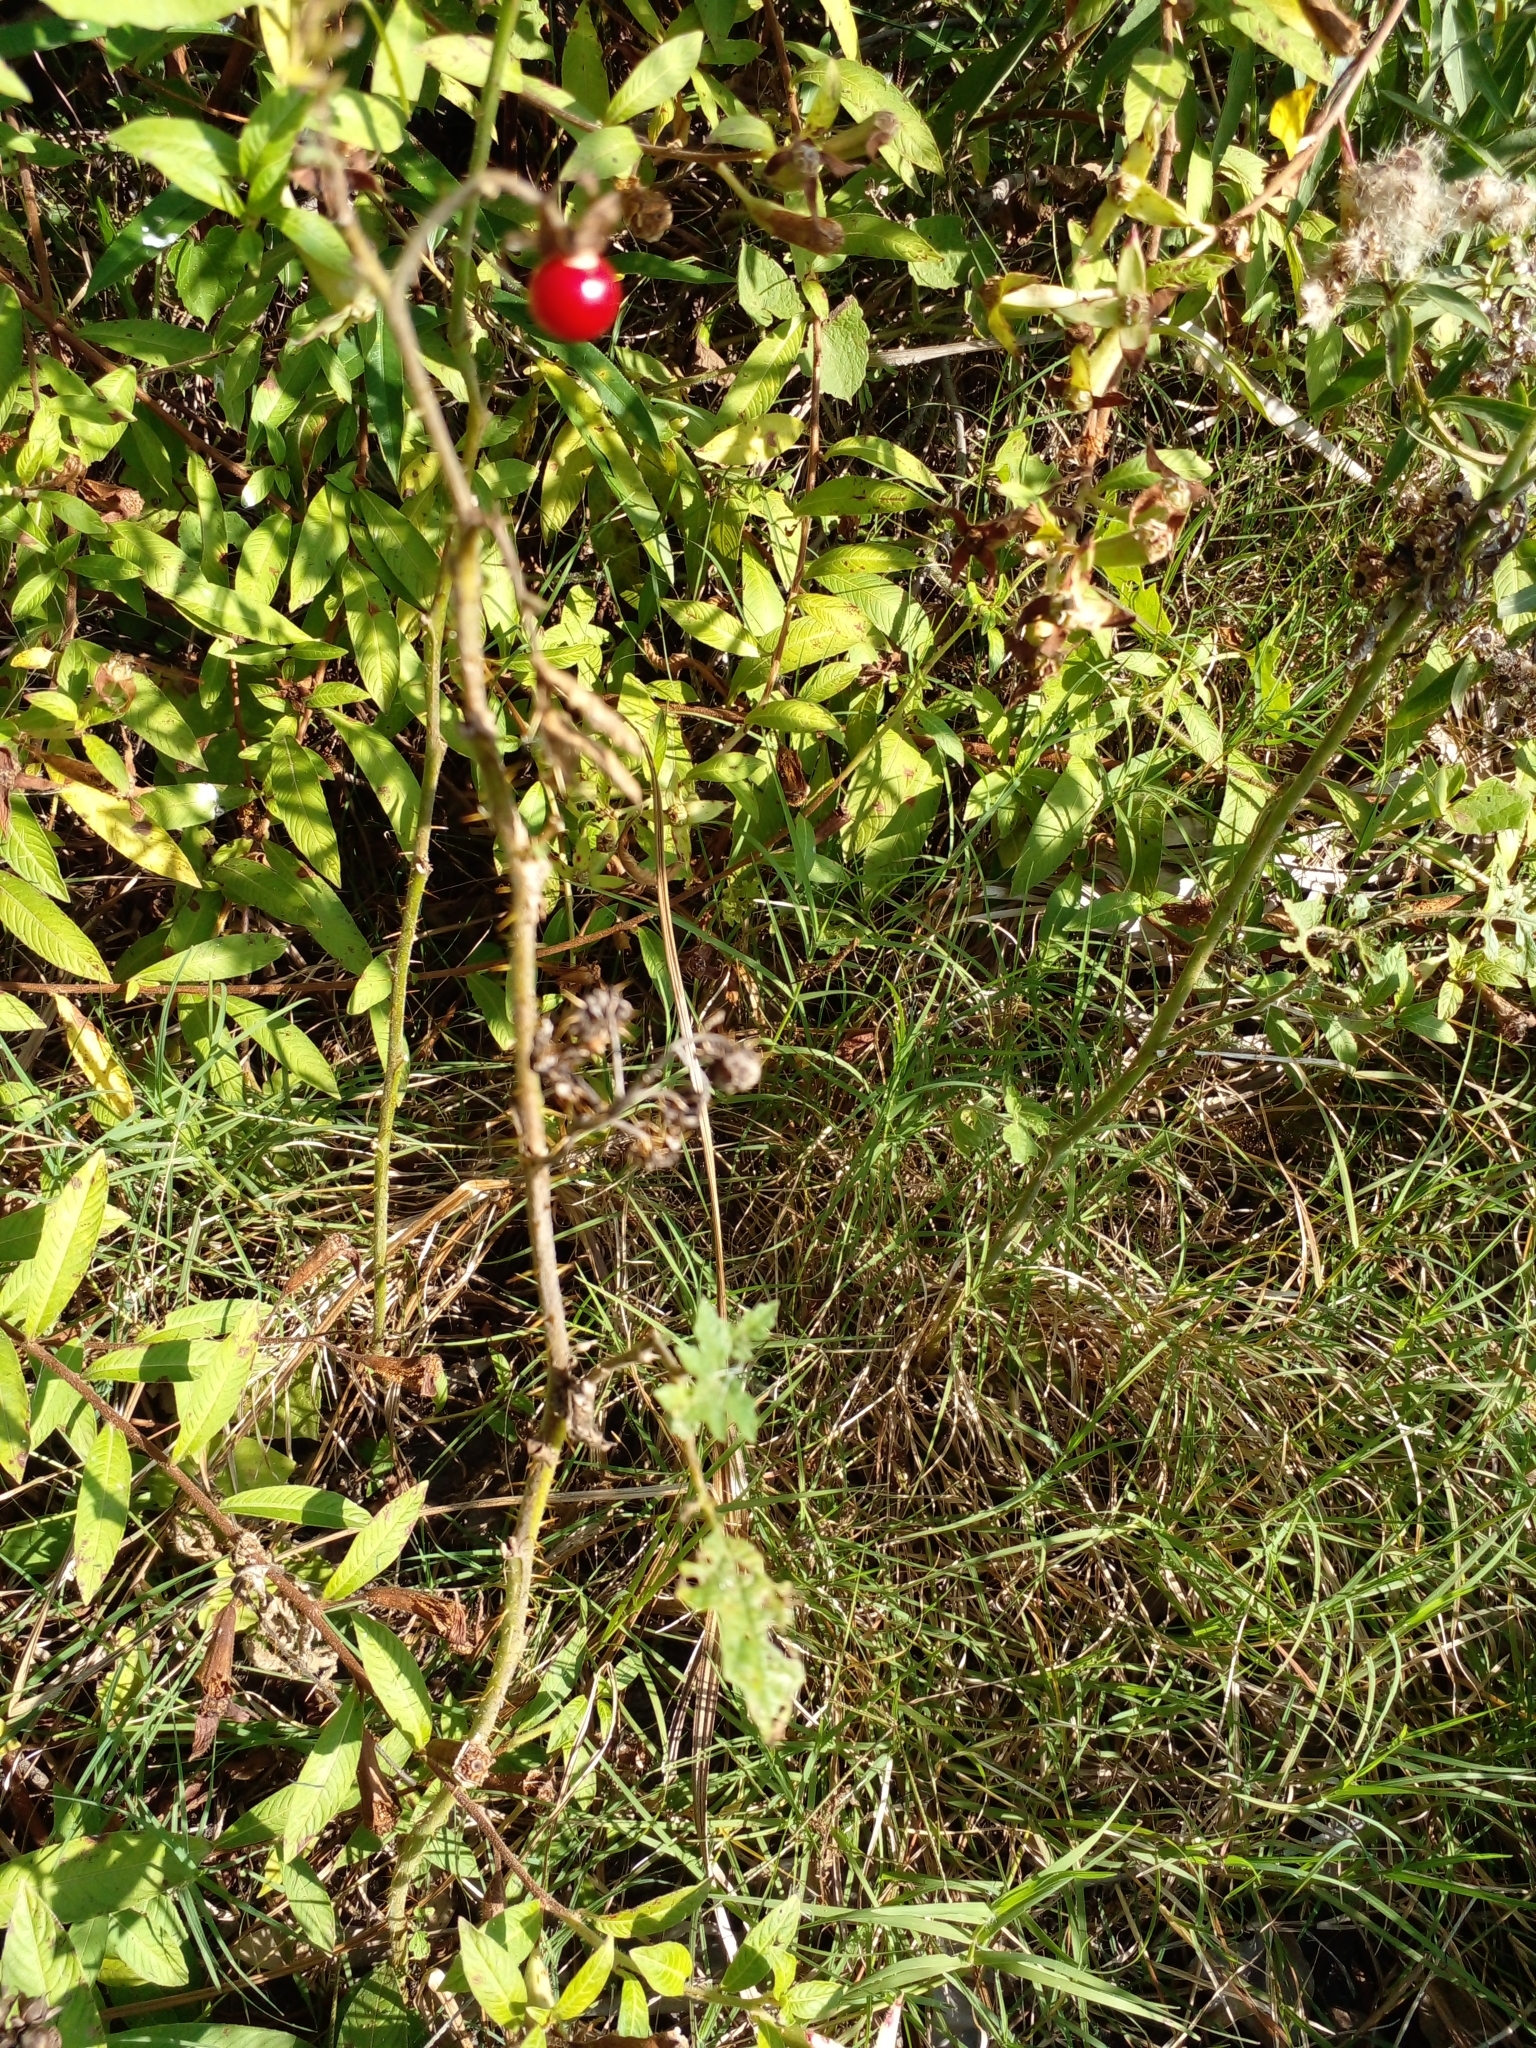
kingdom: Plantae
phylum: Tracheophyta
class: Magnoliopsida
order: Solanales
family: Solanaceae
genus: Solanum
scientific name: Solanum sisymbriifolium
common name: Red buffalo-bur
